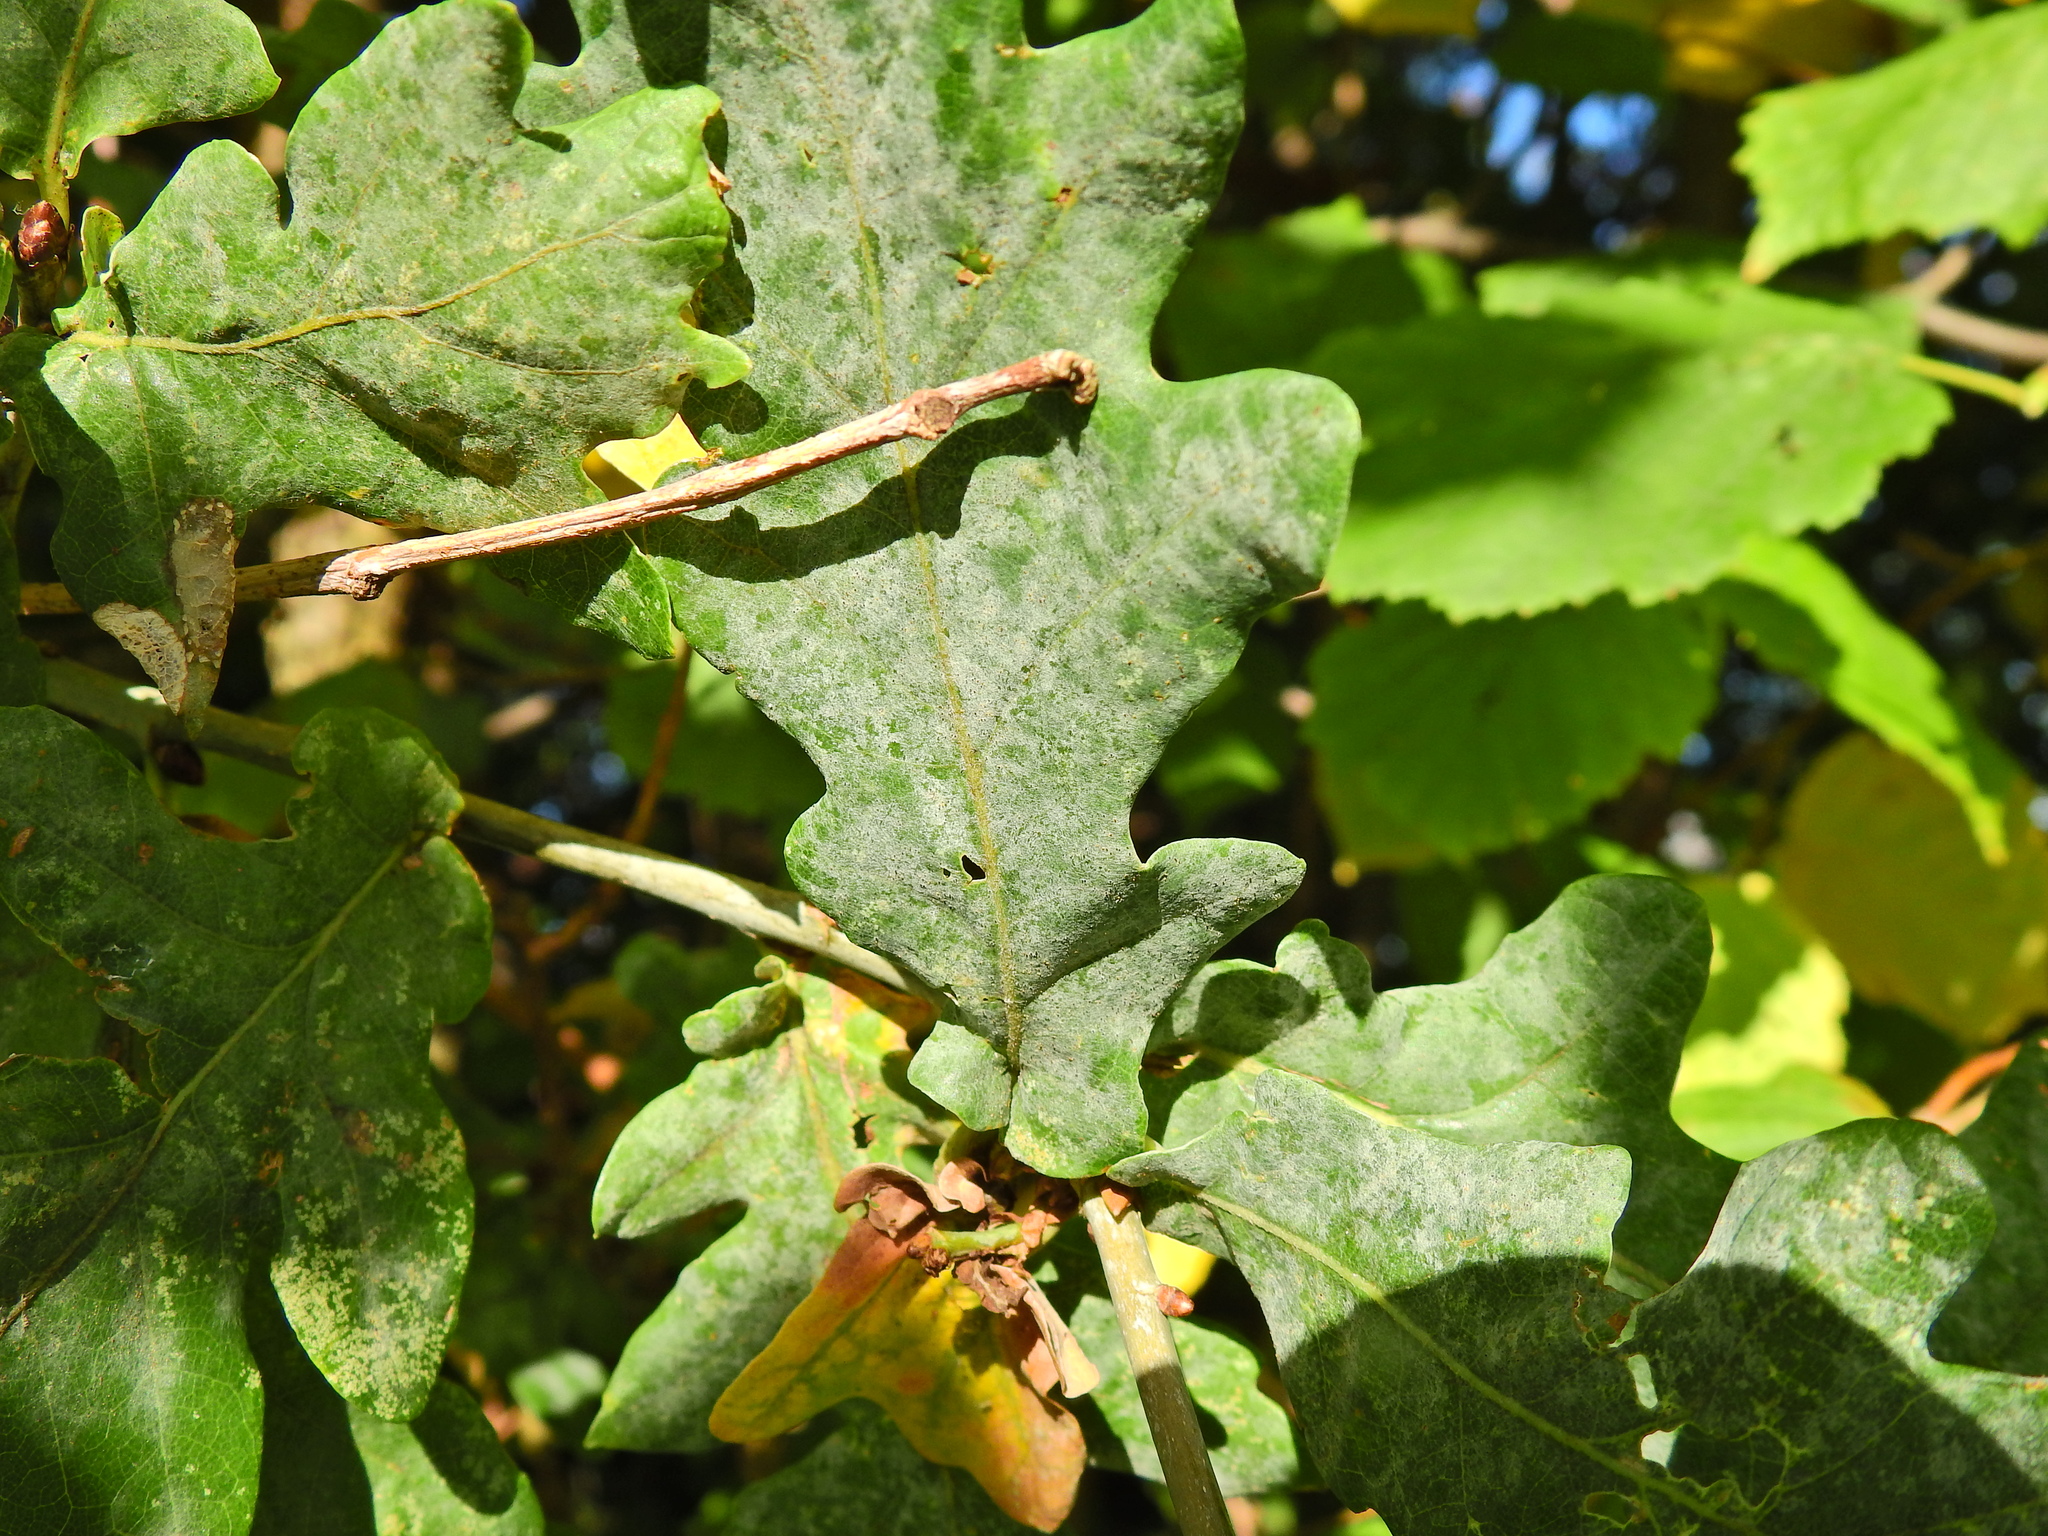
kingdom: Fungi
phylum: Ascomycota
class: Leotiomycetes
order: Helotiales
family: Erysiphaceae
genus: Erysiphe
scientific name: Erysiphe alphitoides
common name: Oak mildew
